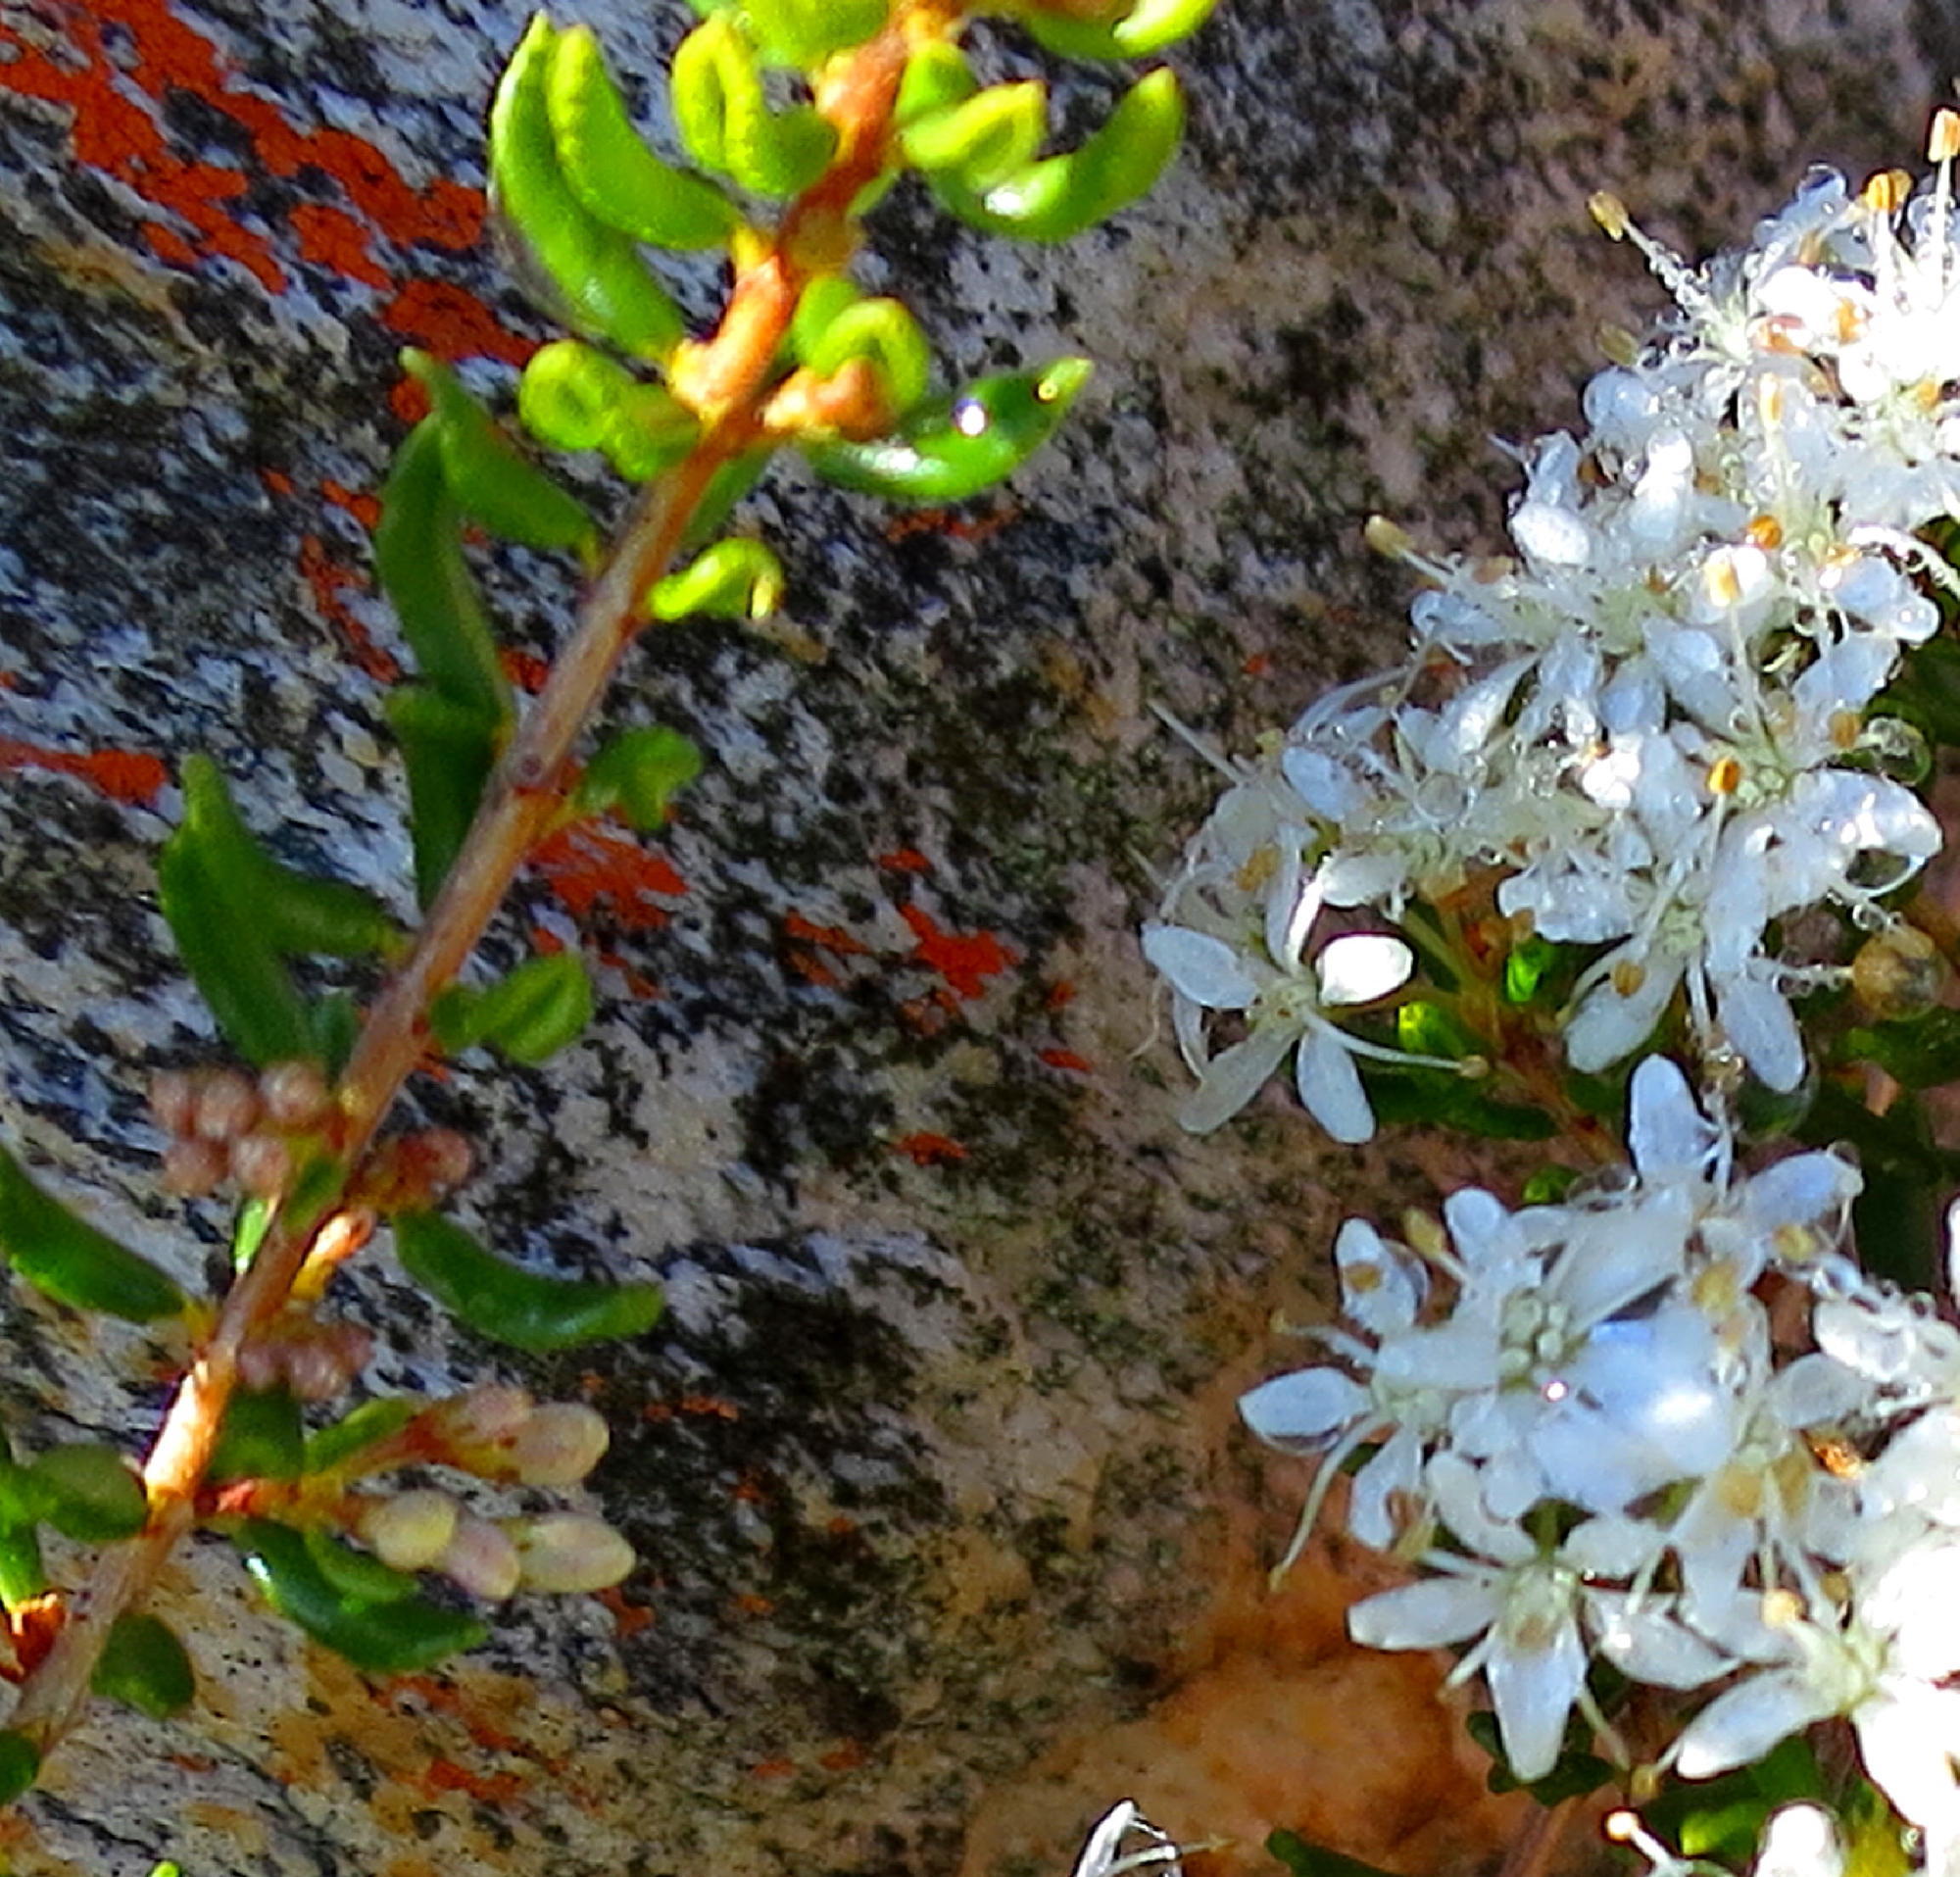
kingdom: Plantae
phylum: Tracheophyta
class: Magnoliopsida
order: Sapindales
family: Rutaceae
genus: Agathosma
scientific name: Agathosma mundtii
